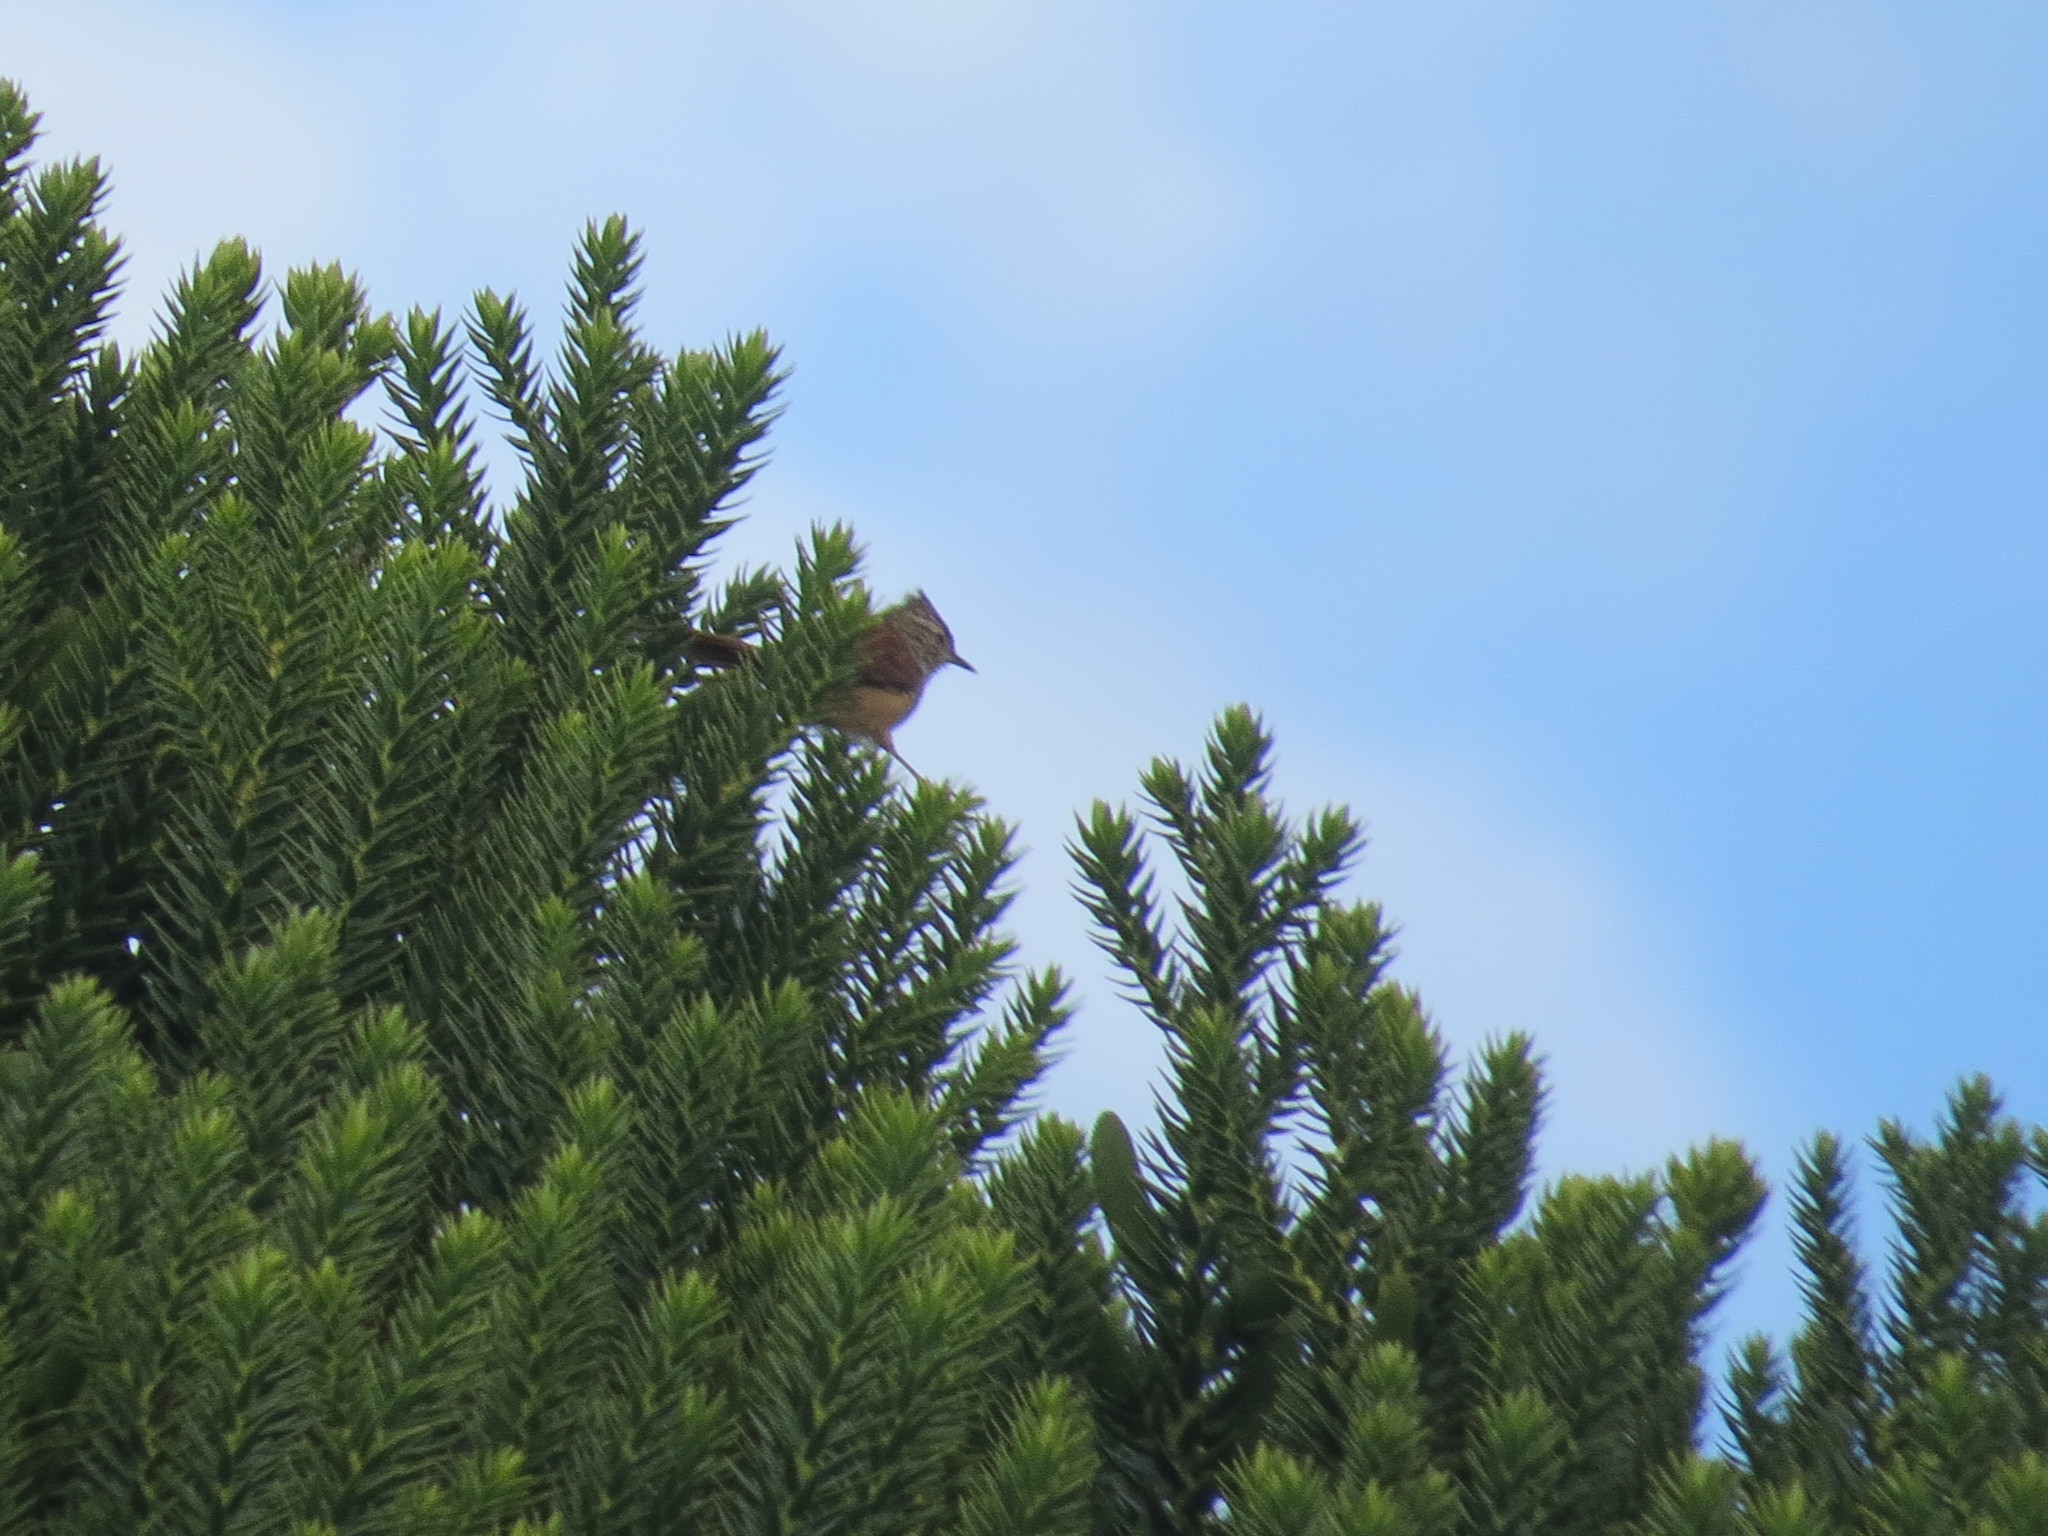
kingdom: Animalia
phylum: Chordata
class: Aves
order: Passeriformes
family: Furnariidae
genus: Leptasthenura
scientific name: Leptasthenura setaria
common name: Araucaria tit-spinetail
